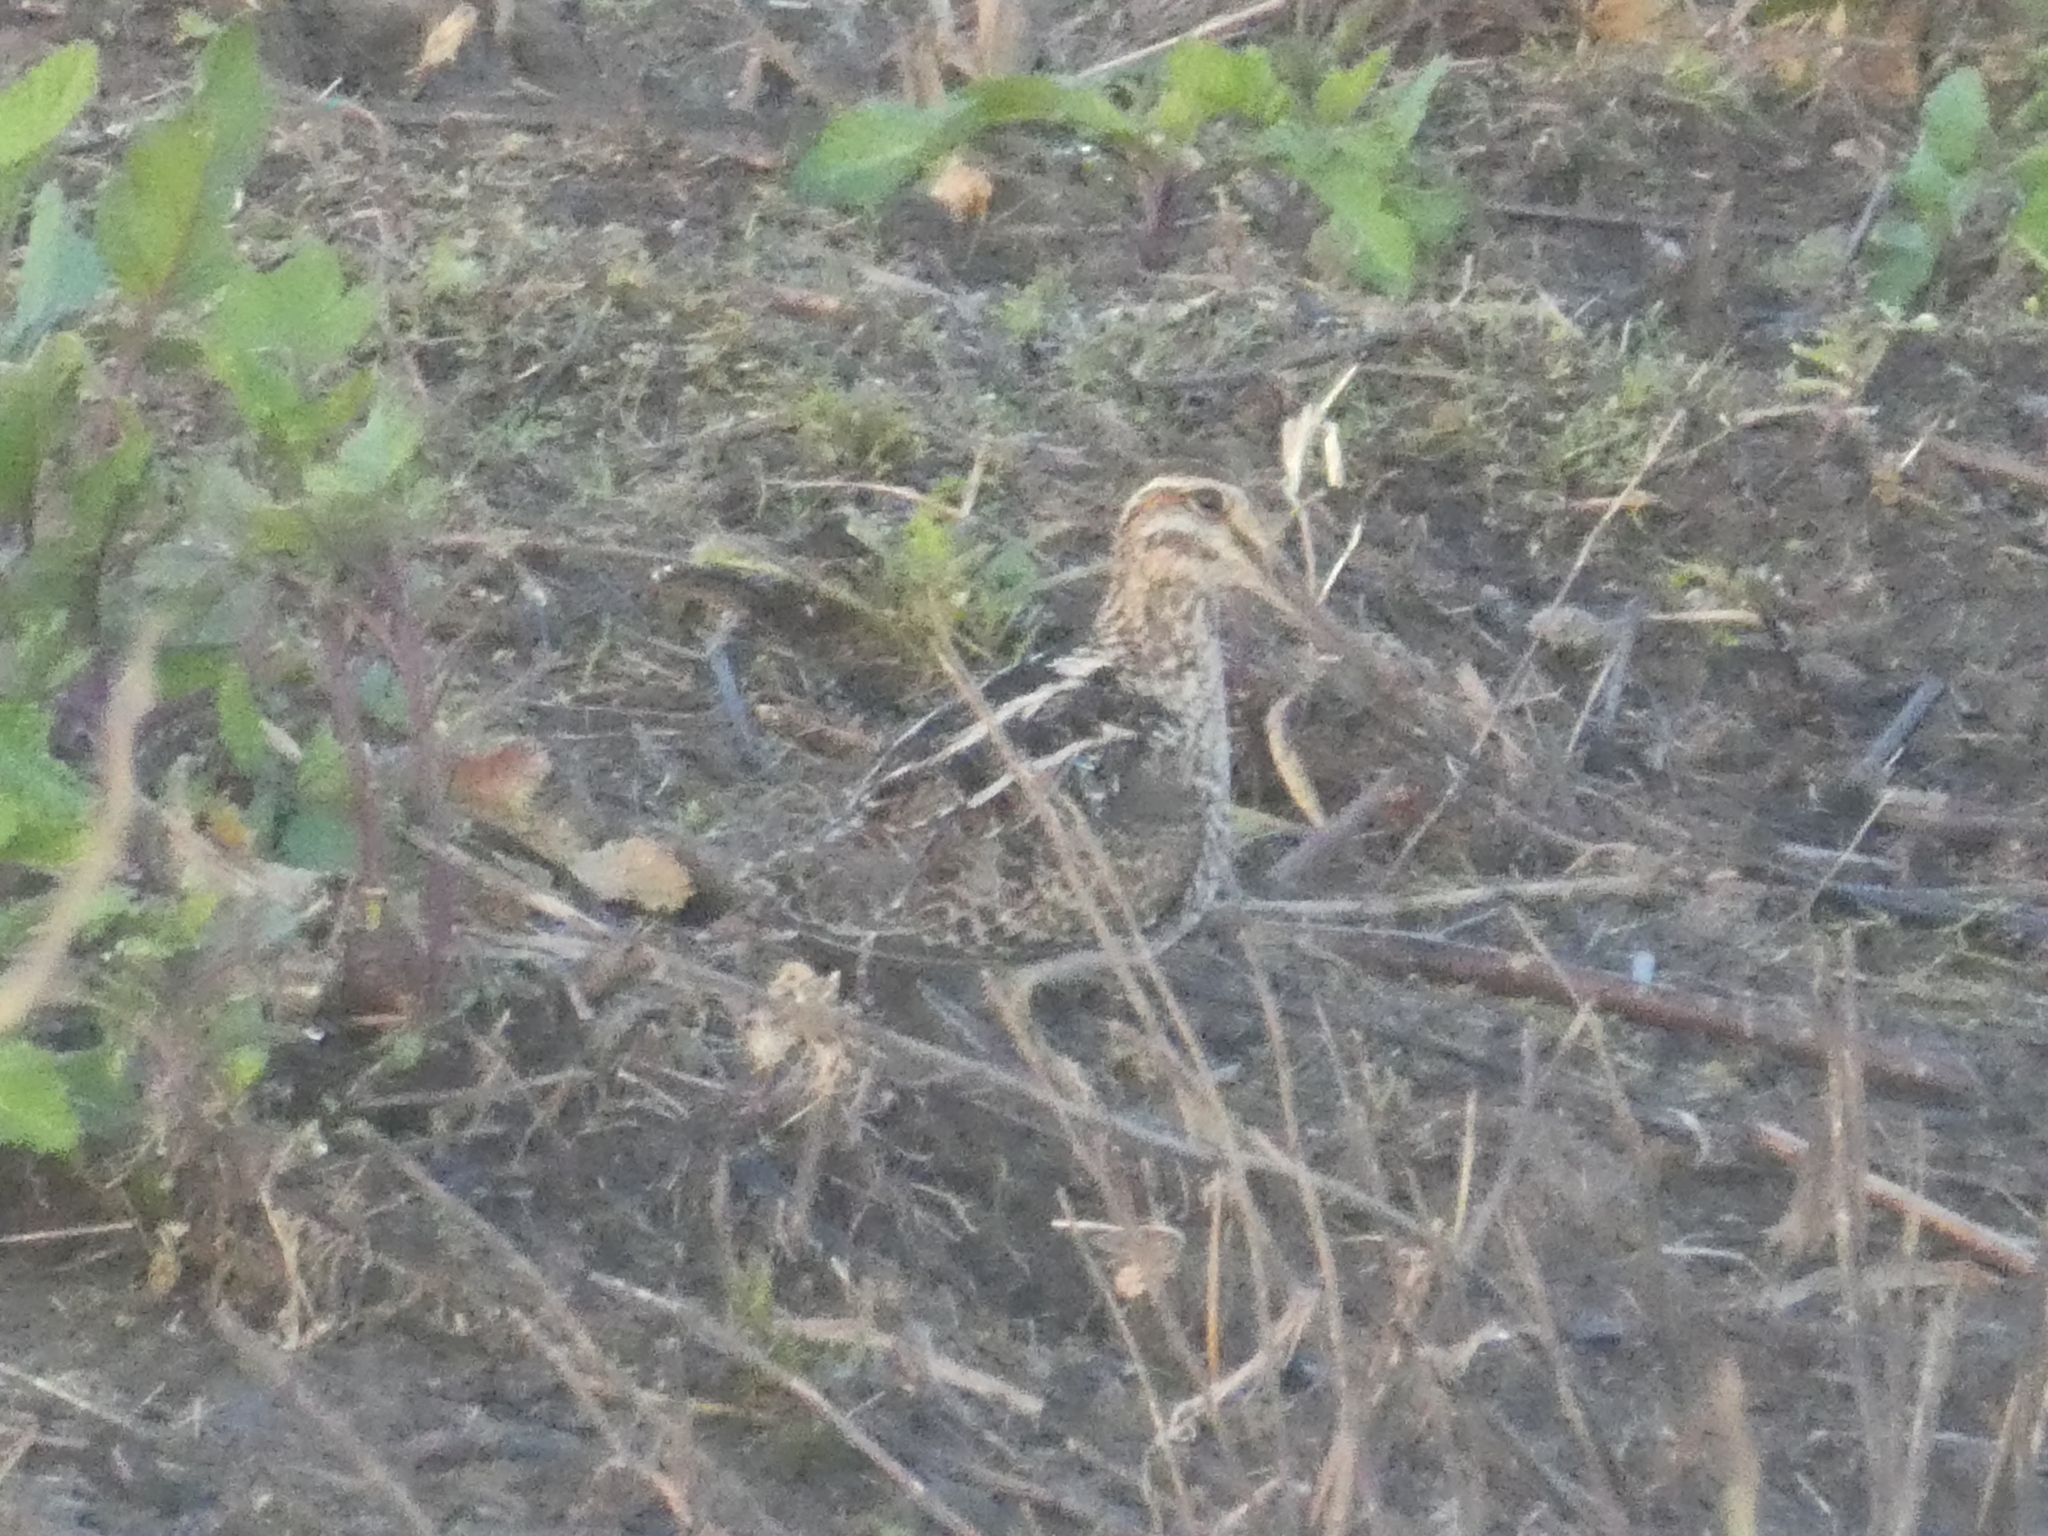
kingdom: Animalia
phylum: Chordata
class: Aves
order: Charadriiformes
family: Scolopacidae
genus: Gallinago
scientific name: Gallinago delicata
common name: Wilson's snipe
